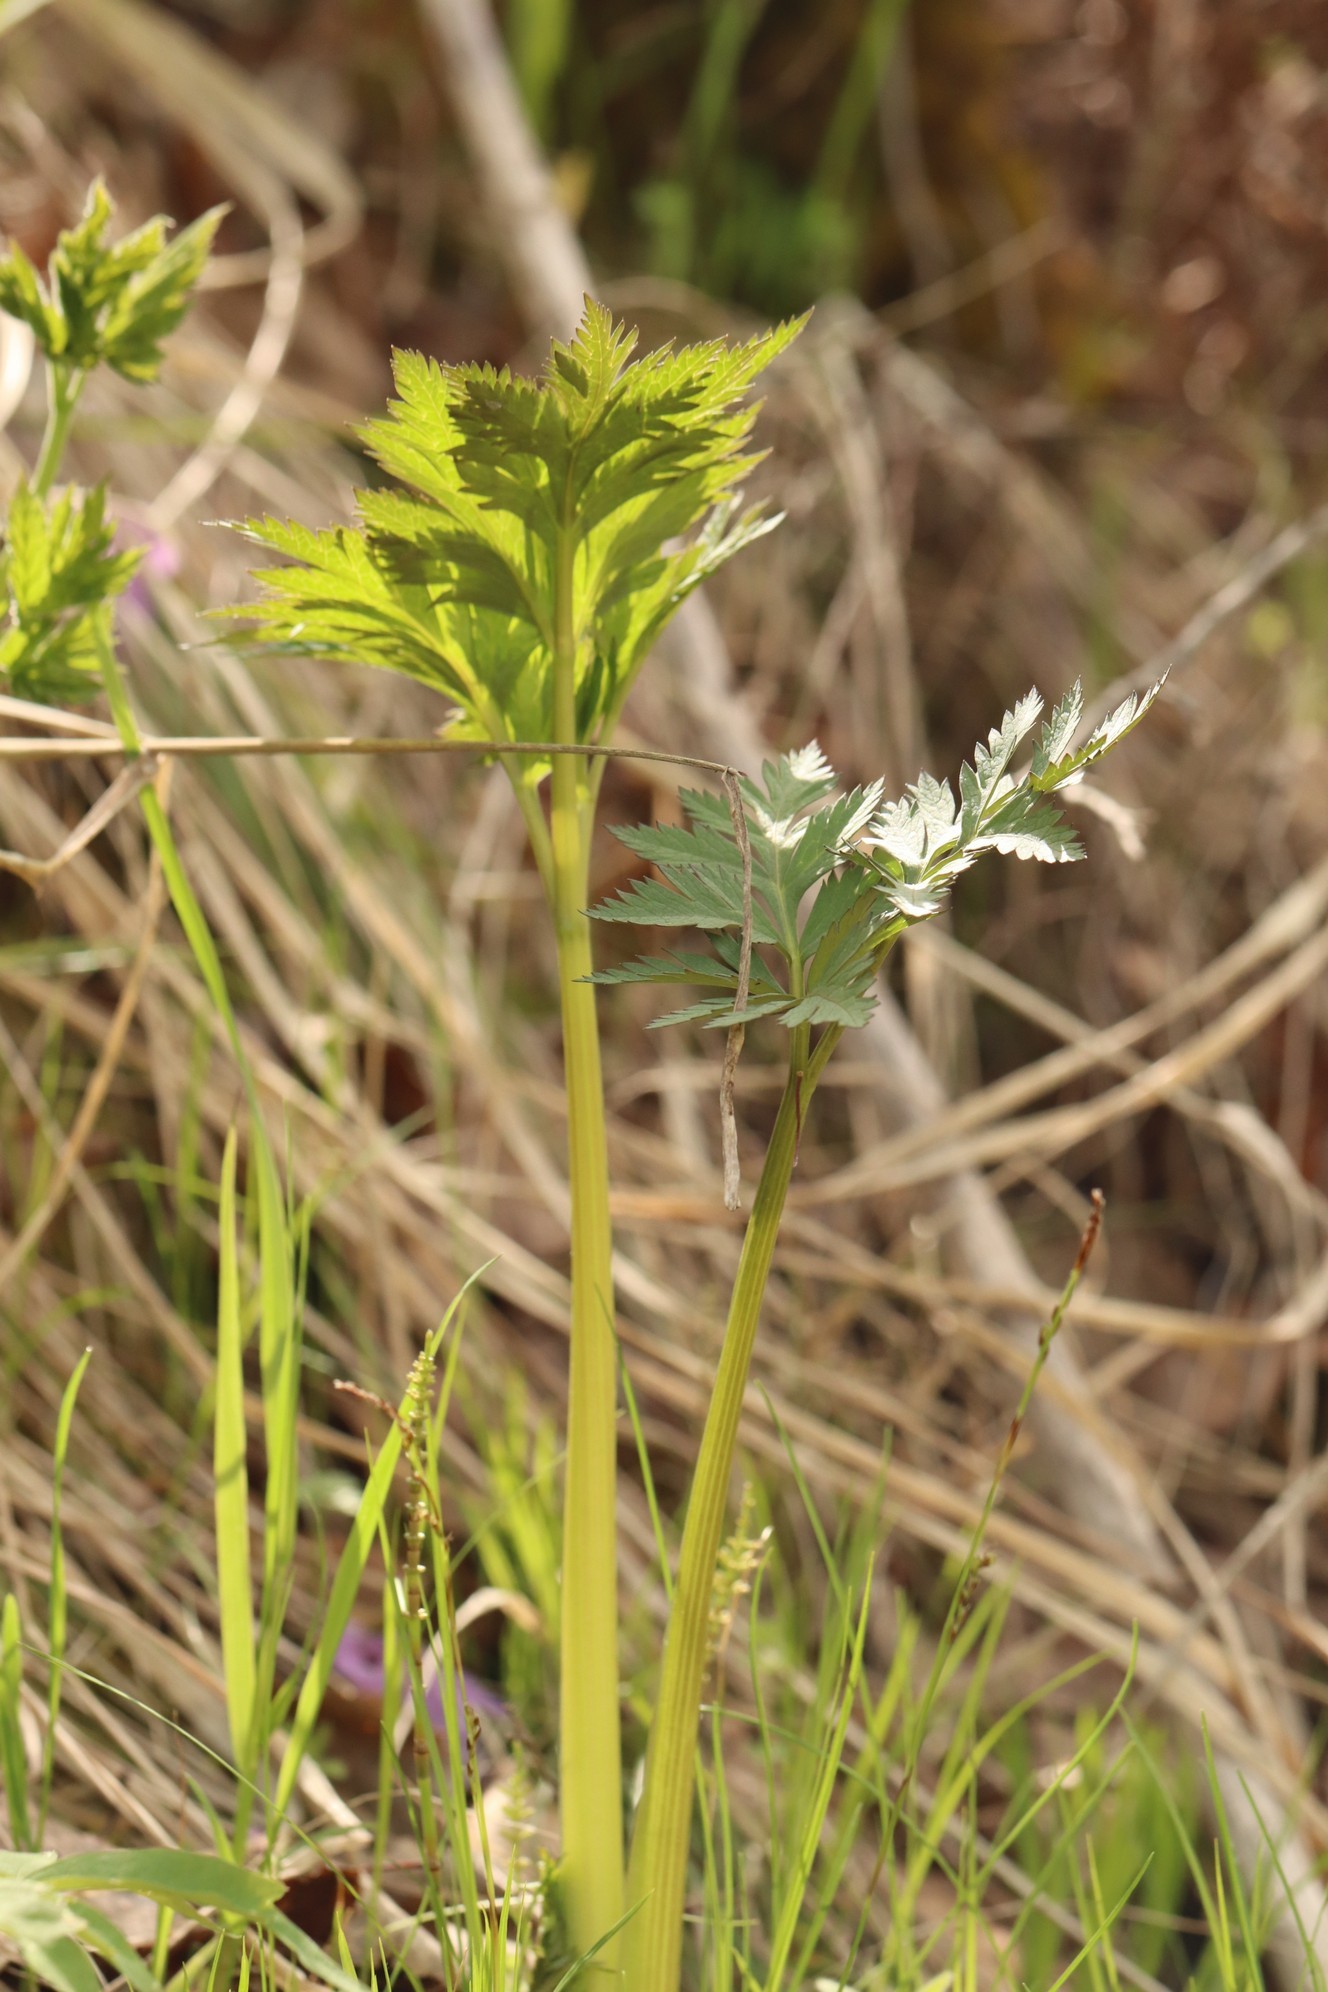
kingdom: Plantae
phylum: Tracheophyta
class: Magnoliopsida
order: Apiales
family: Apiaceae
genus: Pleurospermum
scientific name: Pleurospermum uralense
